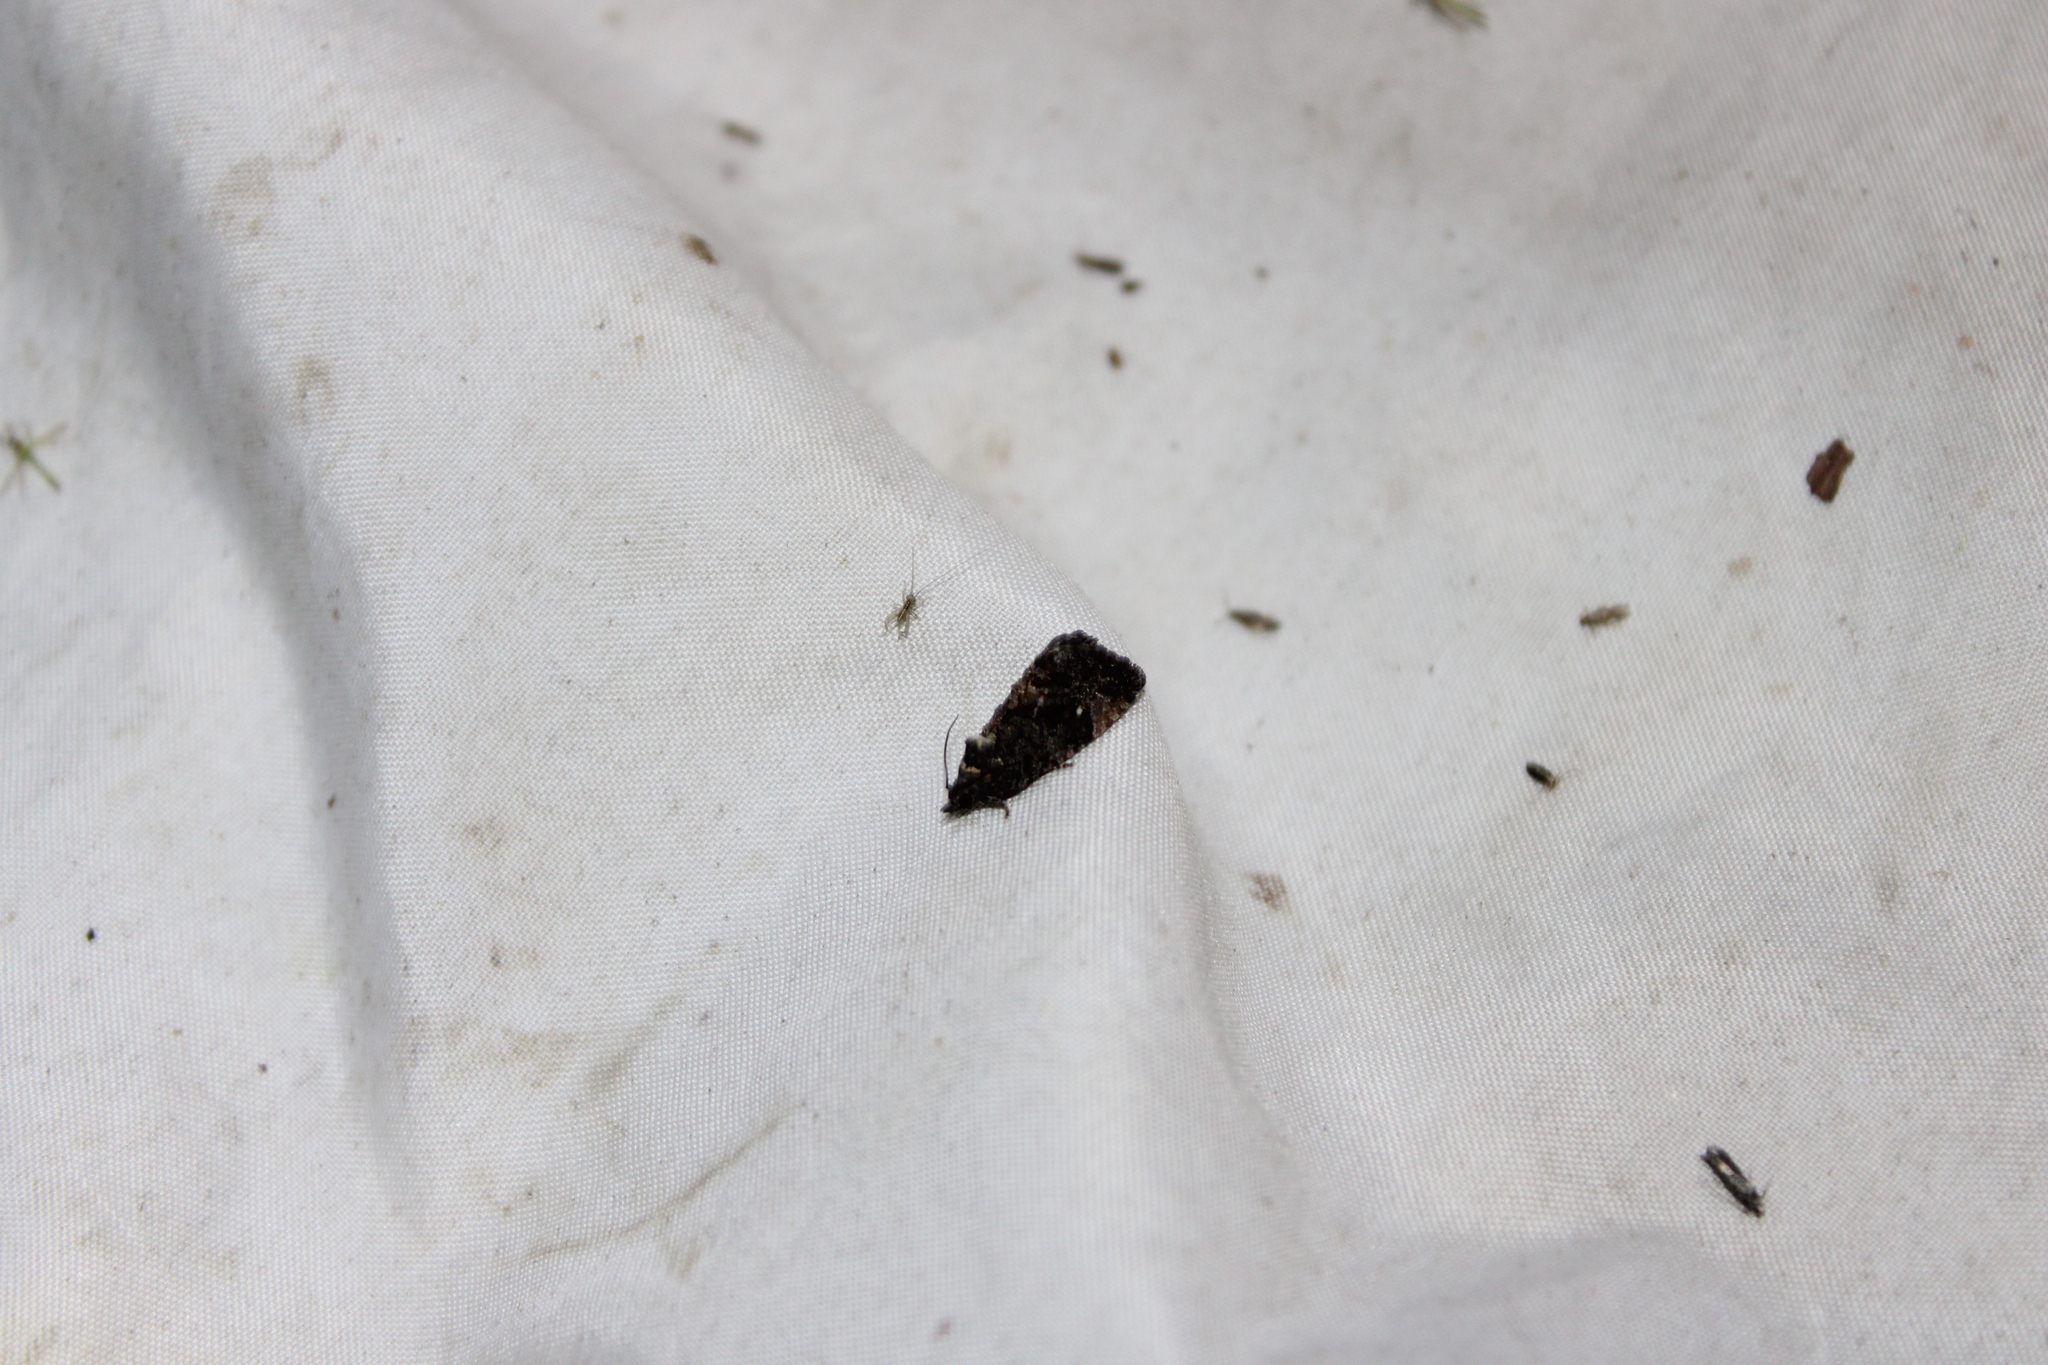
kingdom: Animalia
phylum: Arthropoda
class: Insecta
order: Lepidoptera
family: Tortricidae
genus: Gymnandrosoma
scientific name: Gymnandrosoma punctidiscanum
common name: Dotted ecdytolopha moth
